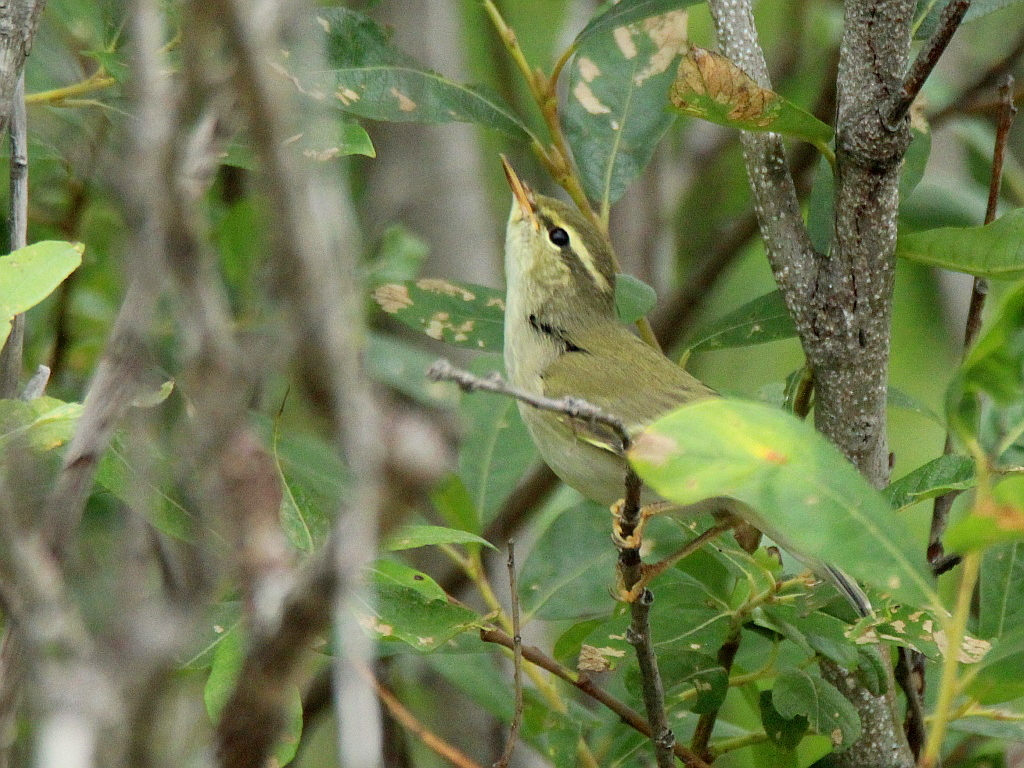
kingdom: Animalia
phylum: Chordata
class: Aves
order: Passeriformes
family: Phylloscopidae
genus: Phylloscopus
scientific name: Phylloscopus borealis
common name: Arctic warbler
